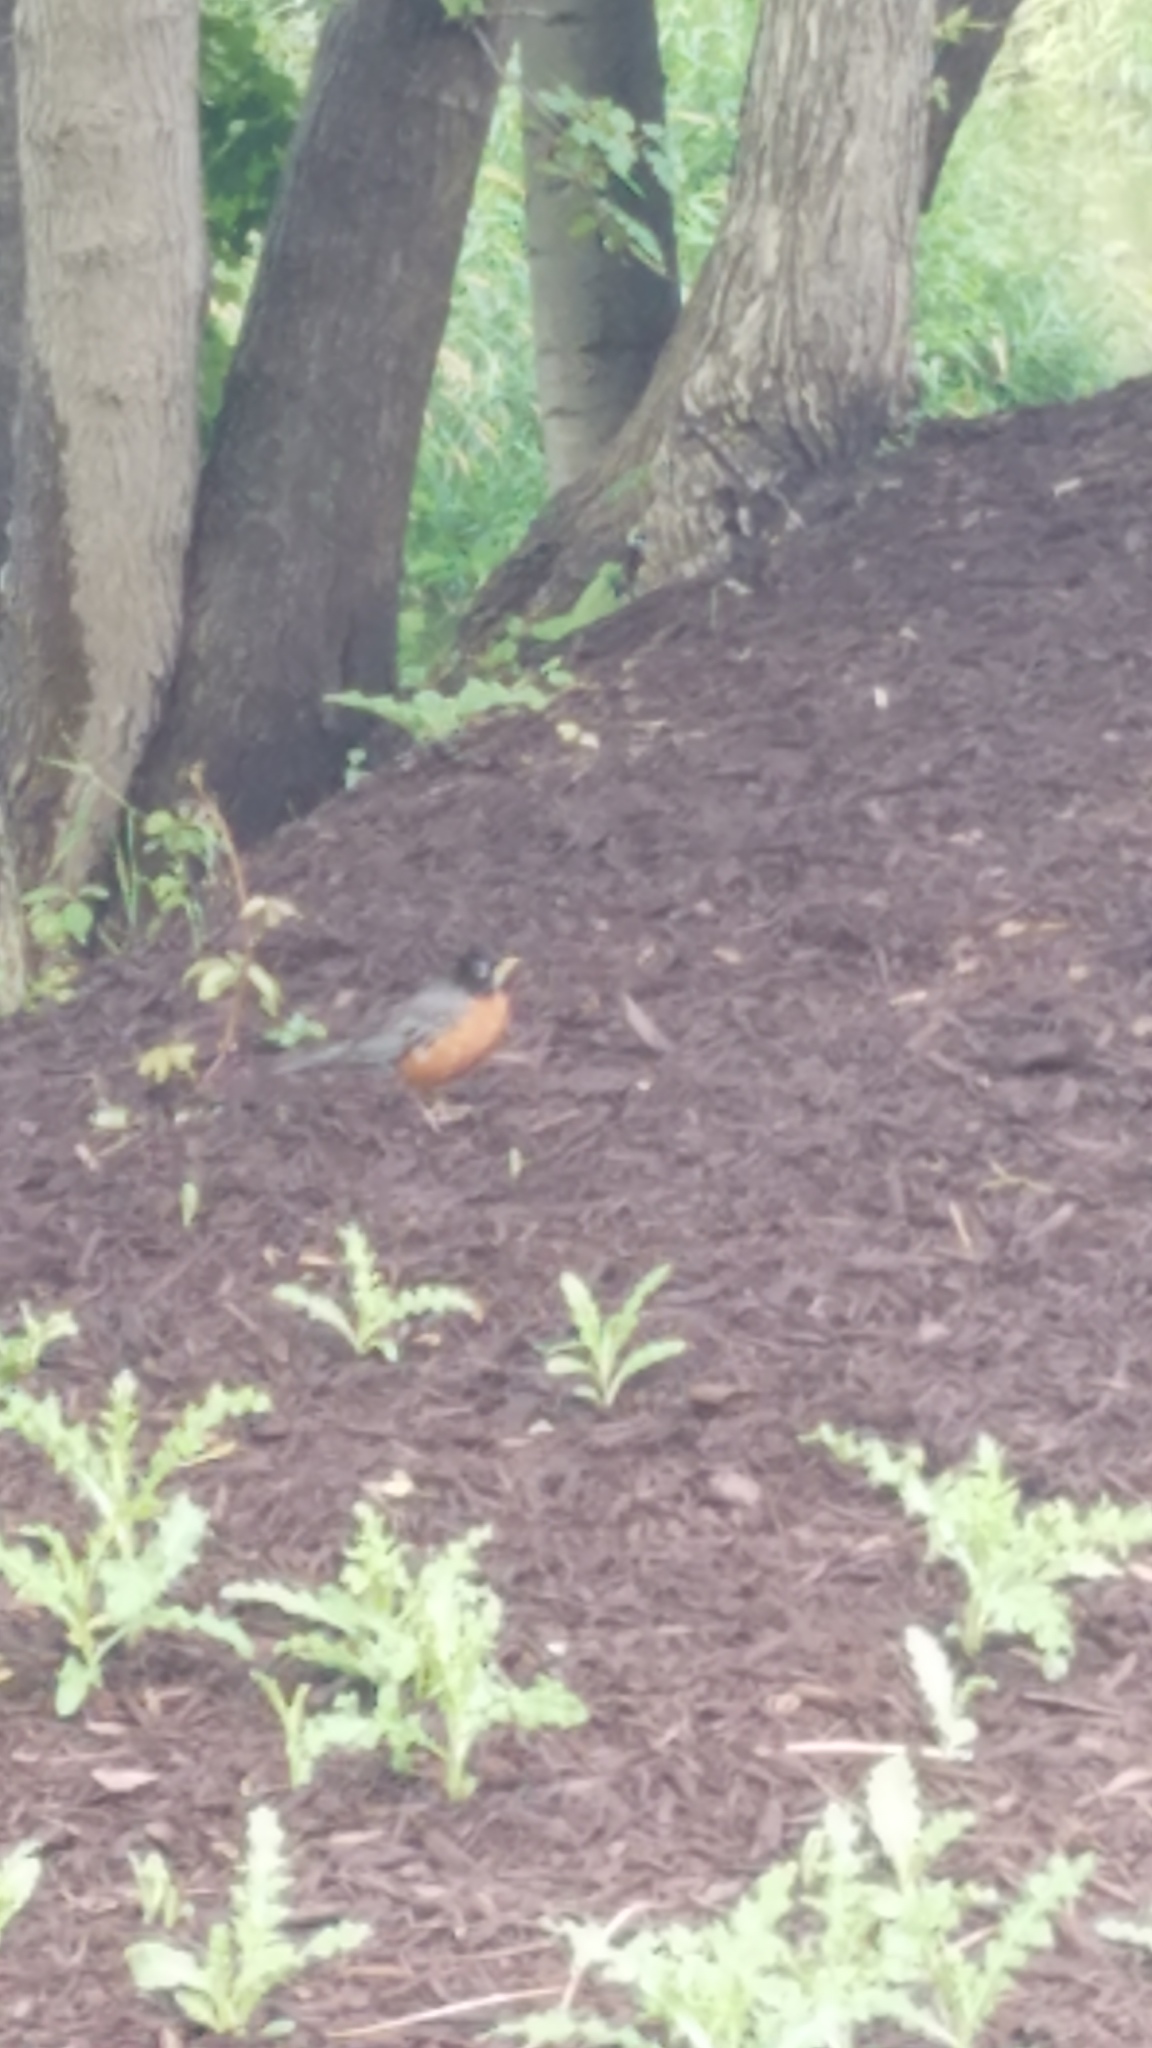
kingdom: Animalia
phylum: Chordata
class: Aves
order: Passeriformes
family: Turdidae
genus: Turdus
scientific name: Turdus migratorius
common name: American robin
